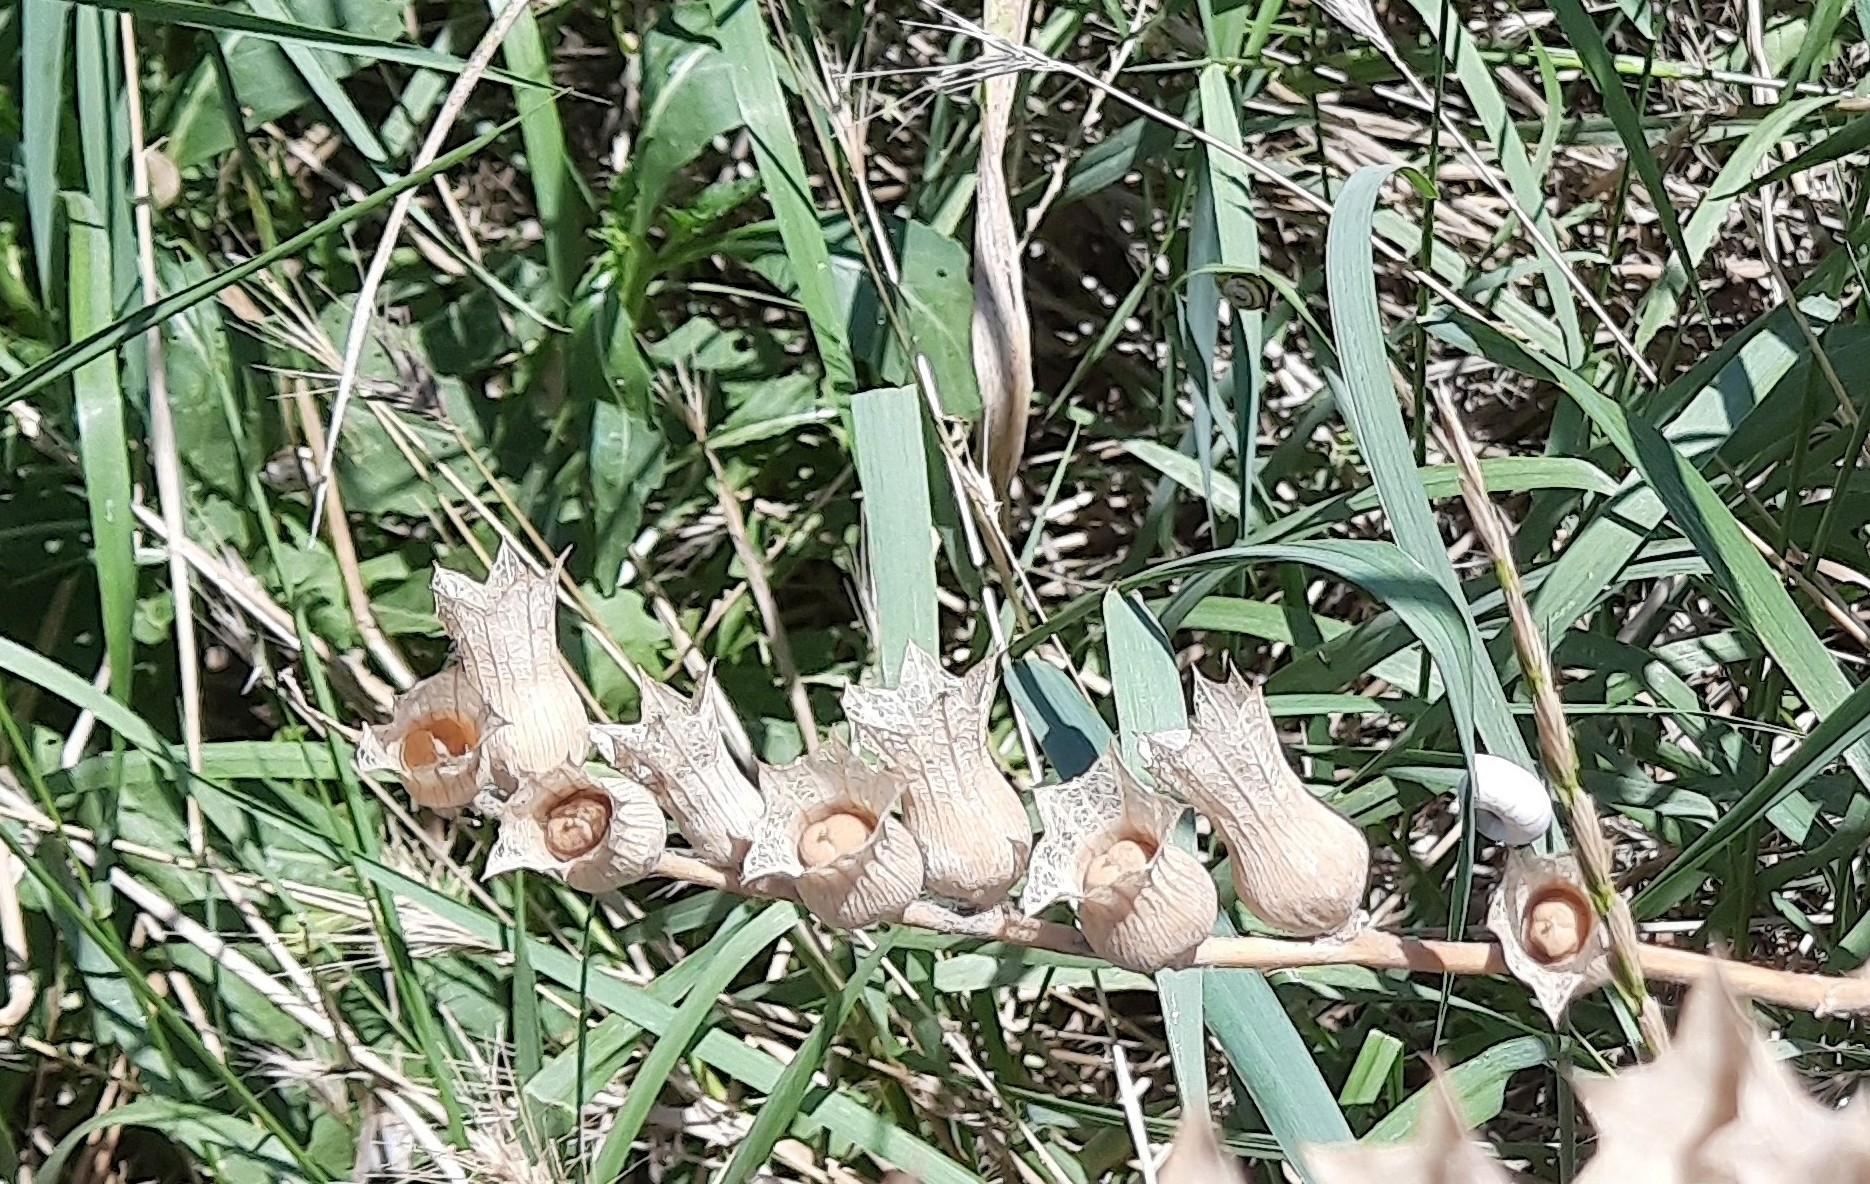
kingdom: Plantae
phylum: Tracheophyta
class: Magnoliopsida
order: Solanales
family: Solanaceae
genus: Hyoscyamus
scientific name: Hyoscyamus niger
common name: Henbane
